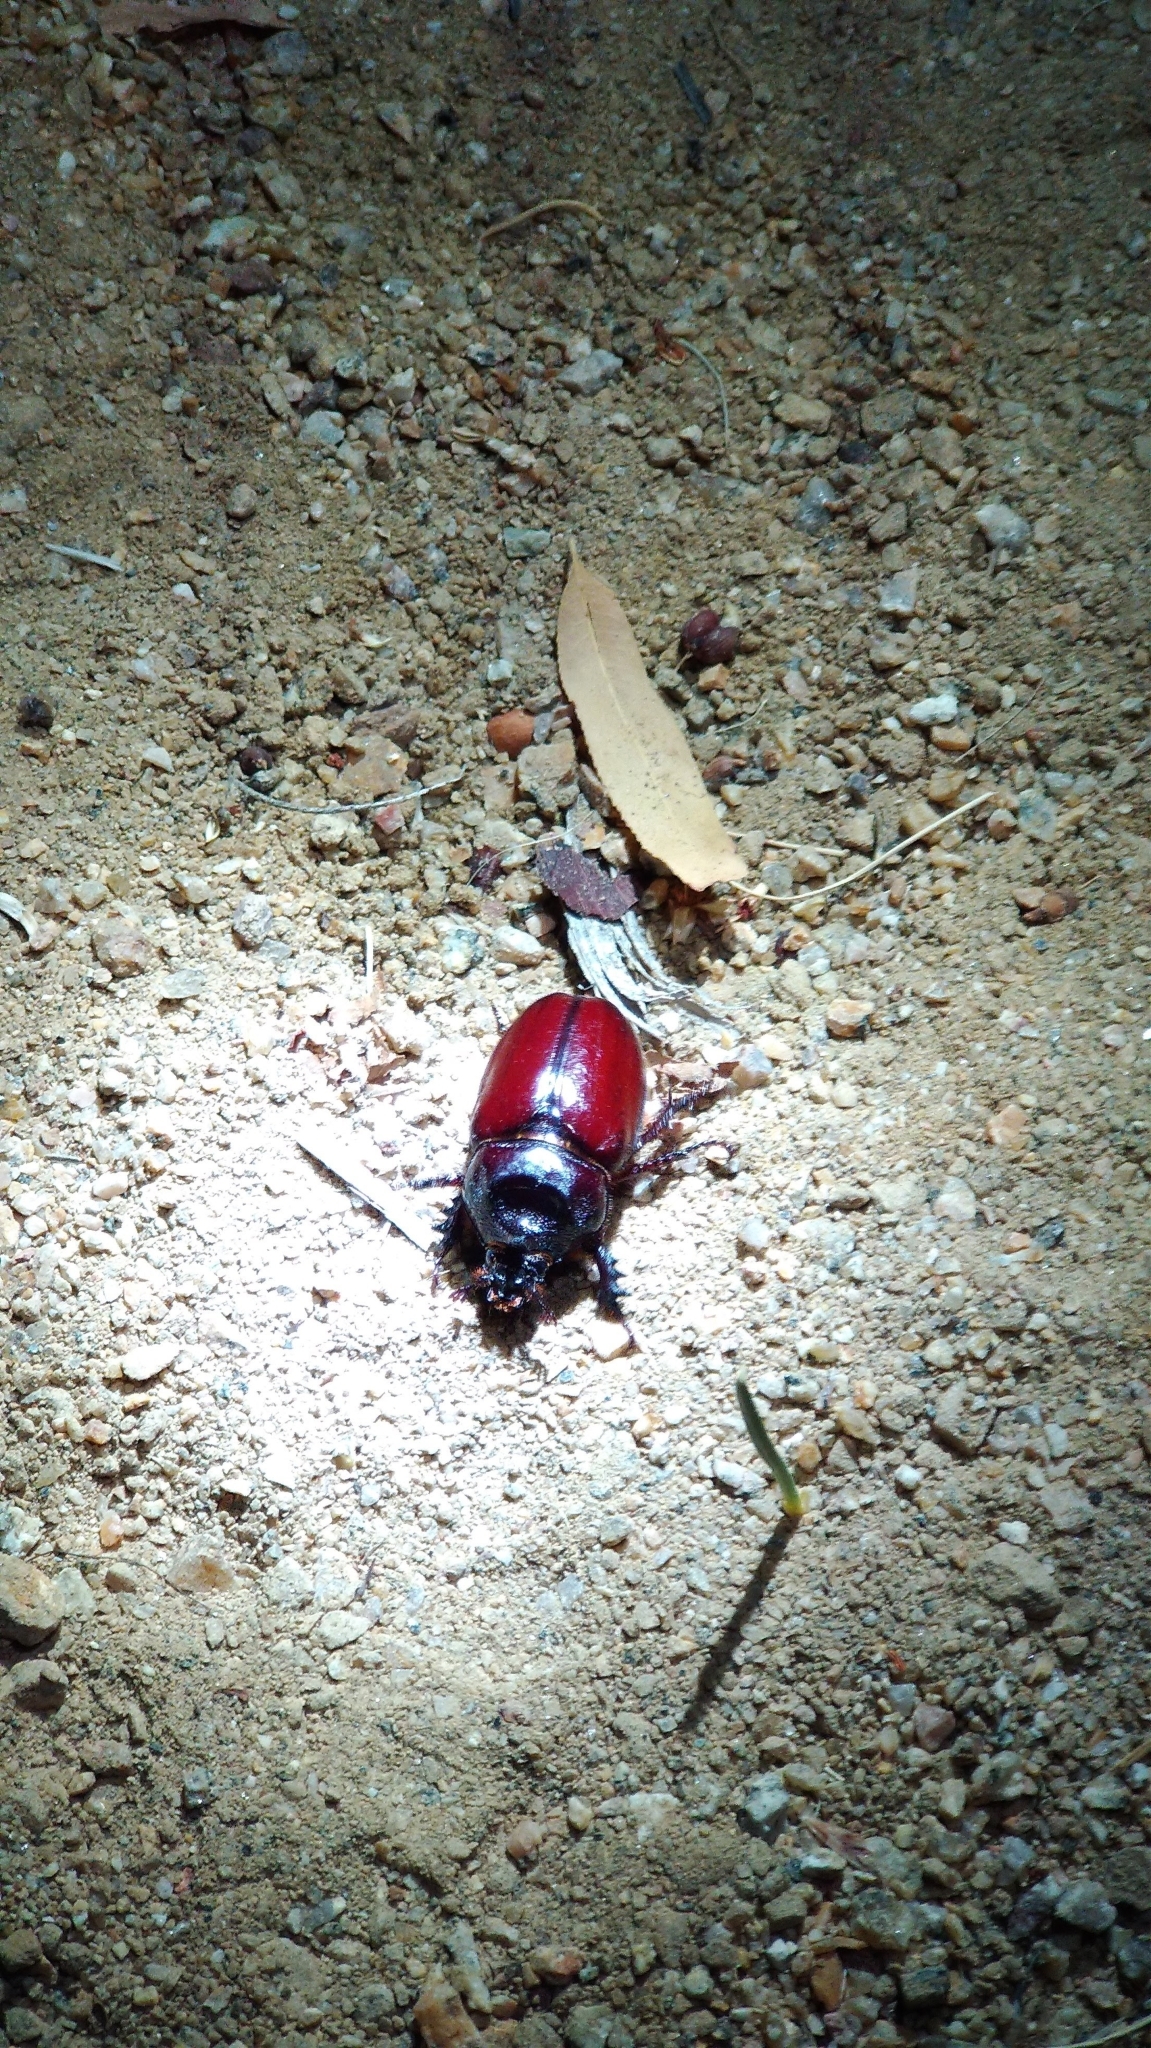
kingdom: Animalia
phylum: Arthropoda
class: Insecta
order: Coleoptera
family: Scarabaeidae
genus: Strategus
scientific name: Strategus aloeus
